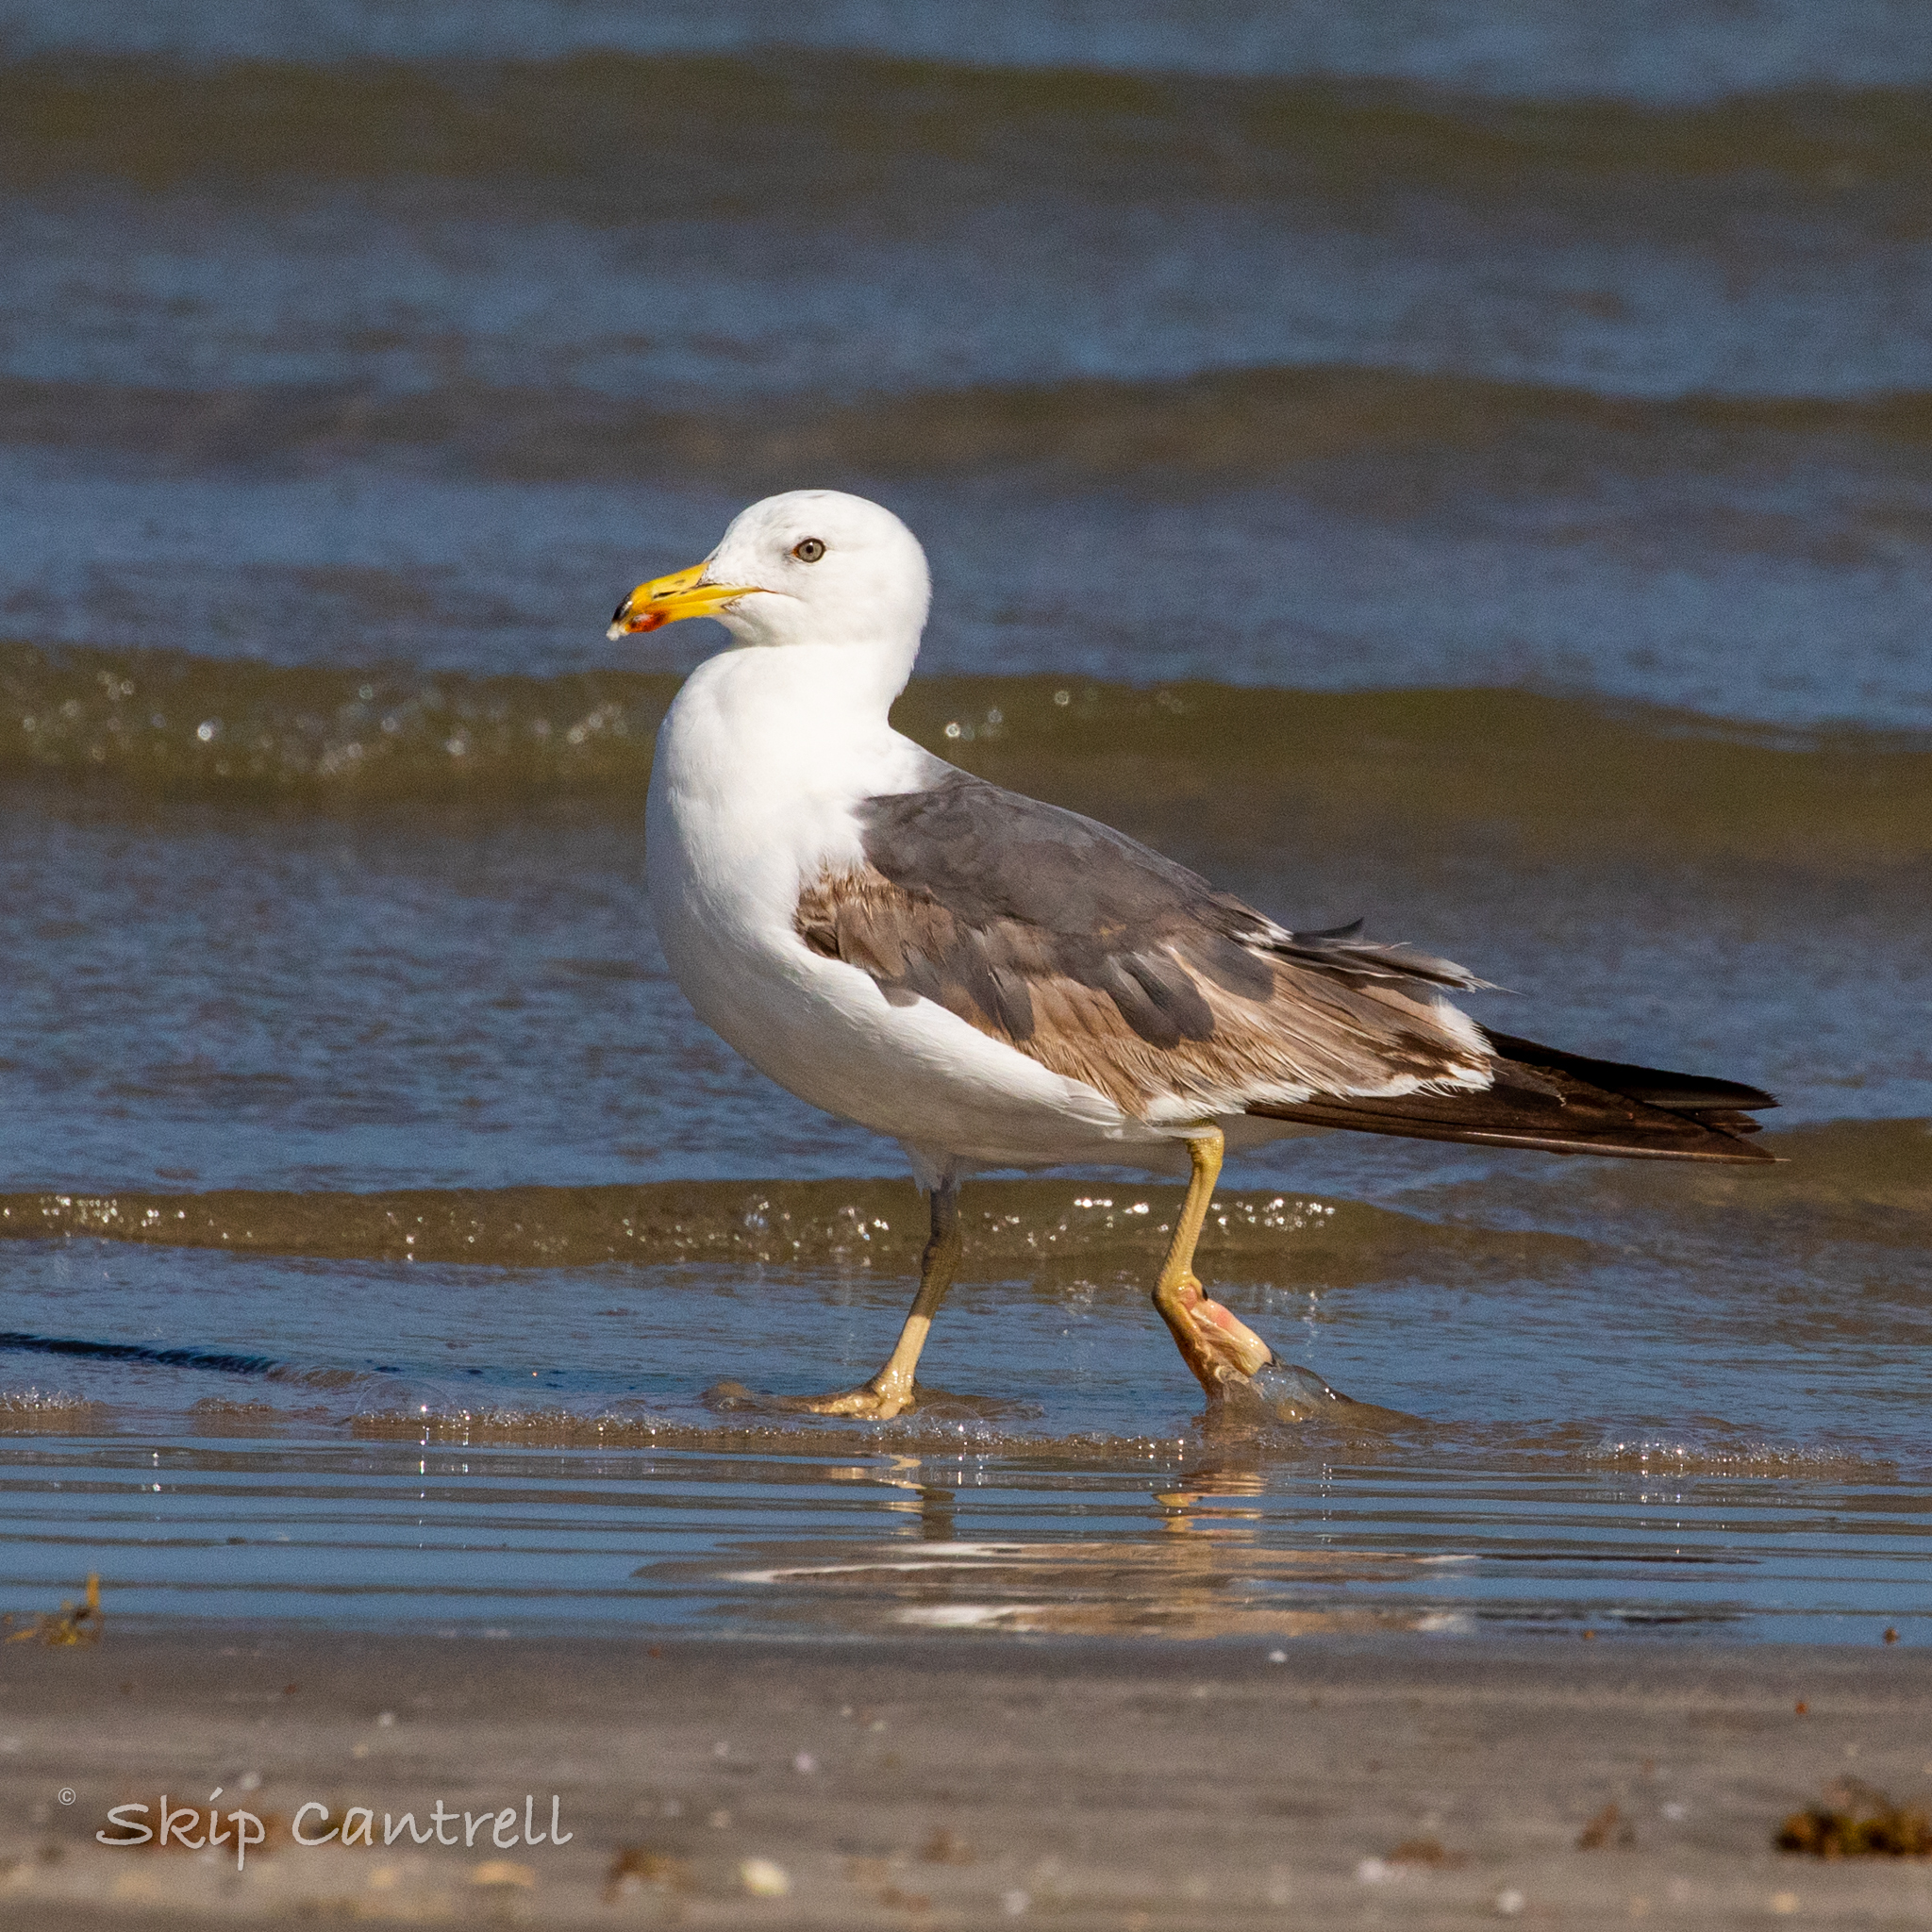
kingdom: Animalia
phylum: Chordata
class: Aves
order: Charadriiformes
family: Laridae
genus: Larus
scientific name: Larus fuscus
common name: Lesser black-backed gull
